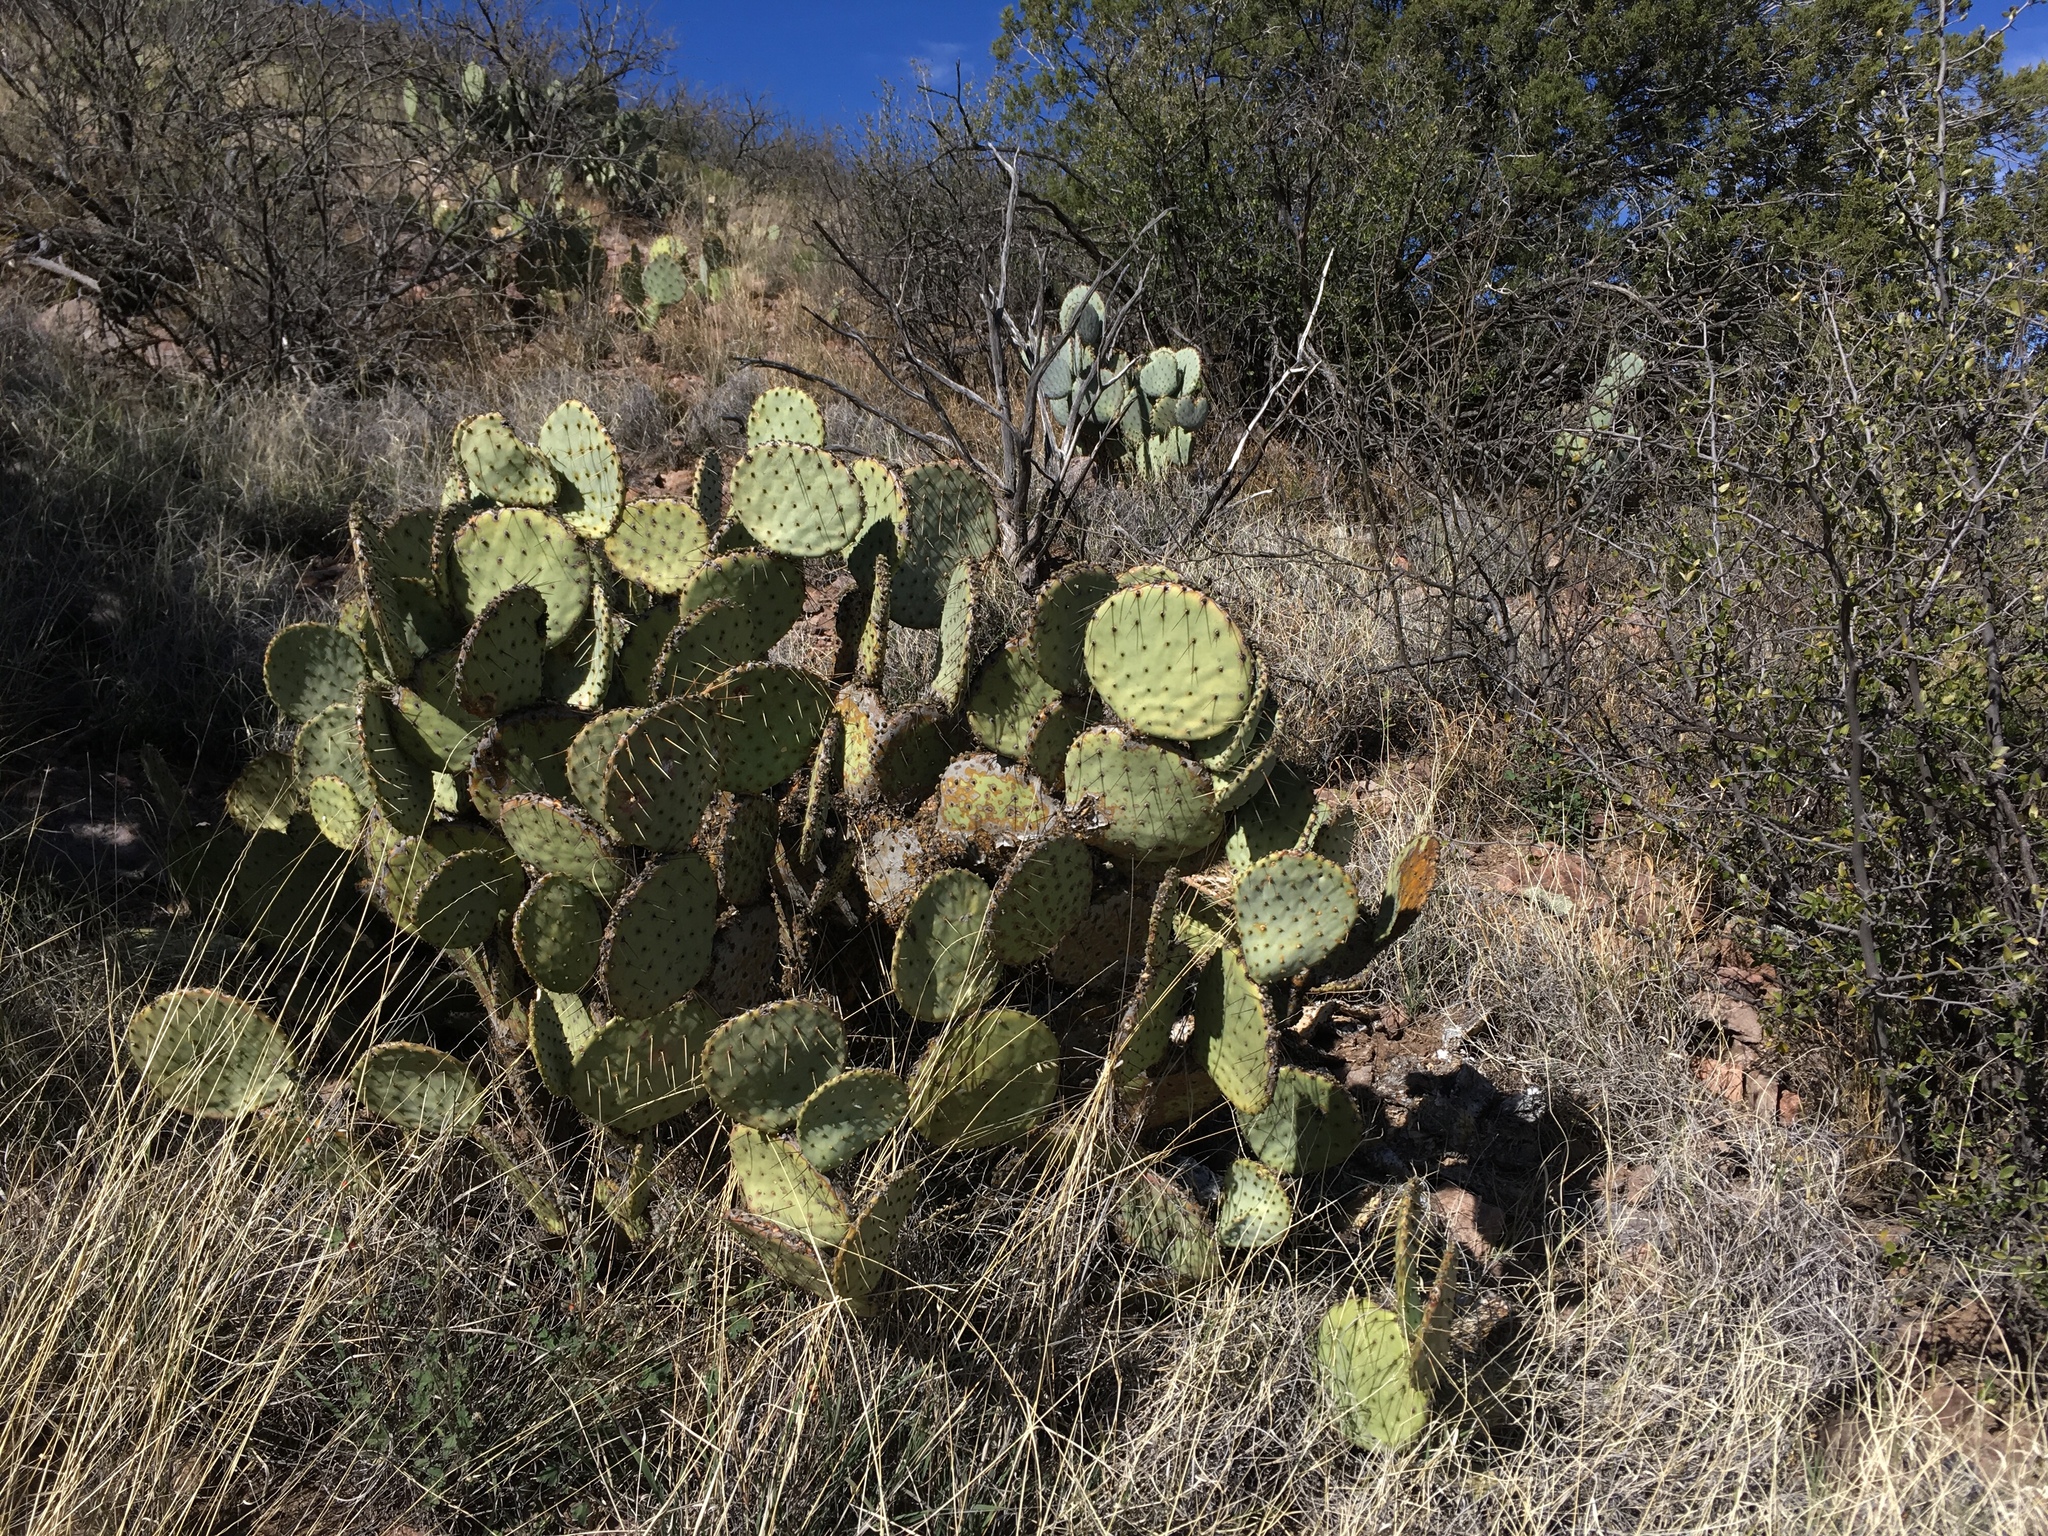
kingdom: Plantae
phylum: Tracheophyta
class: Magnoliopsida
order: Caryophyllales
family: Cactaceae
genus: Opuntia
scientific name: Opuntia chlorotica
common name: Dollar-joint prickly-pear
